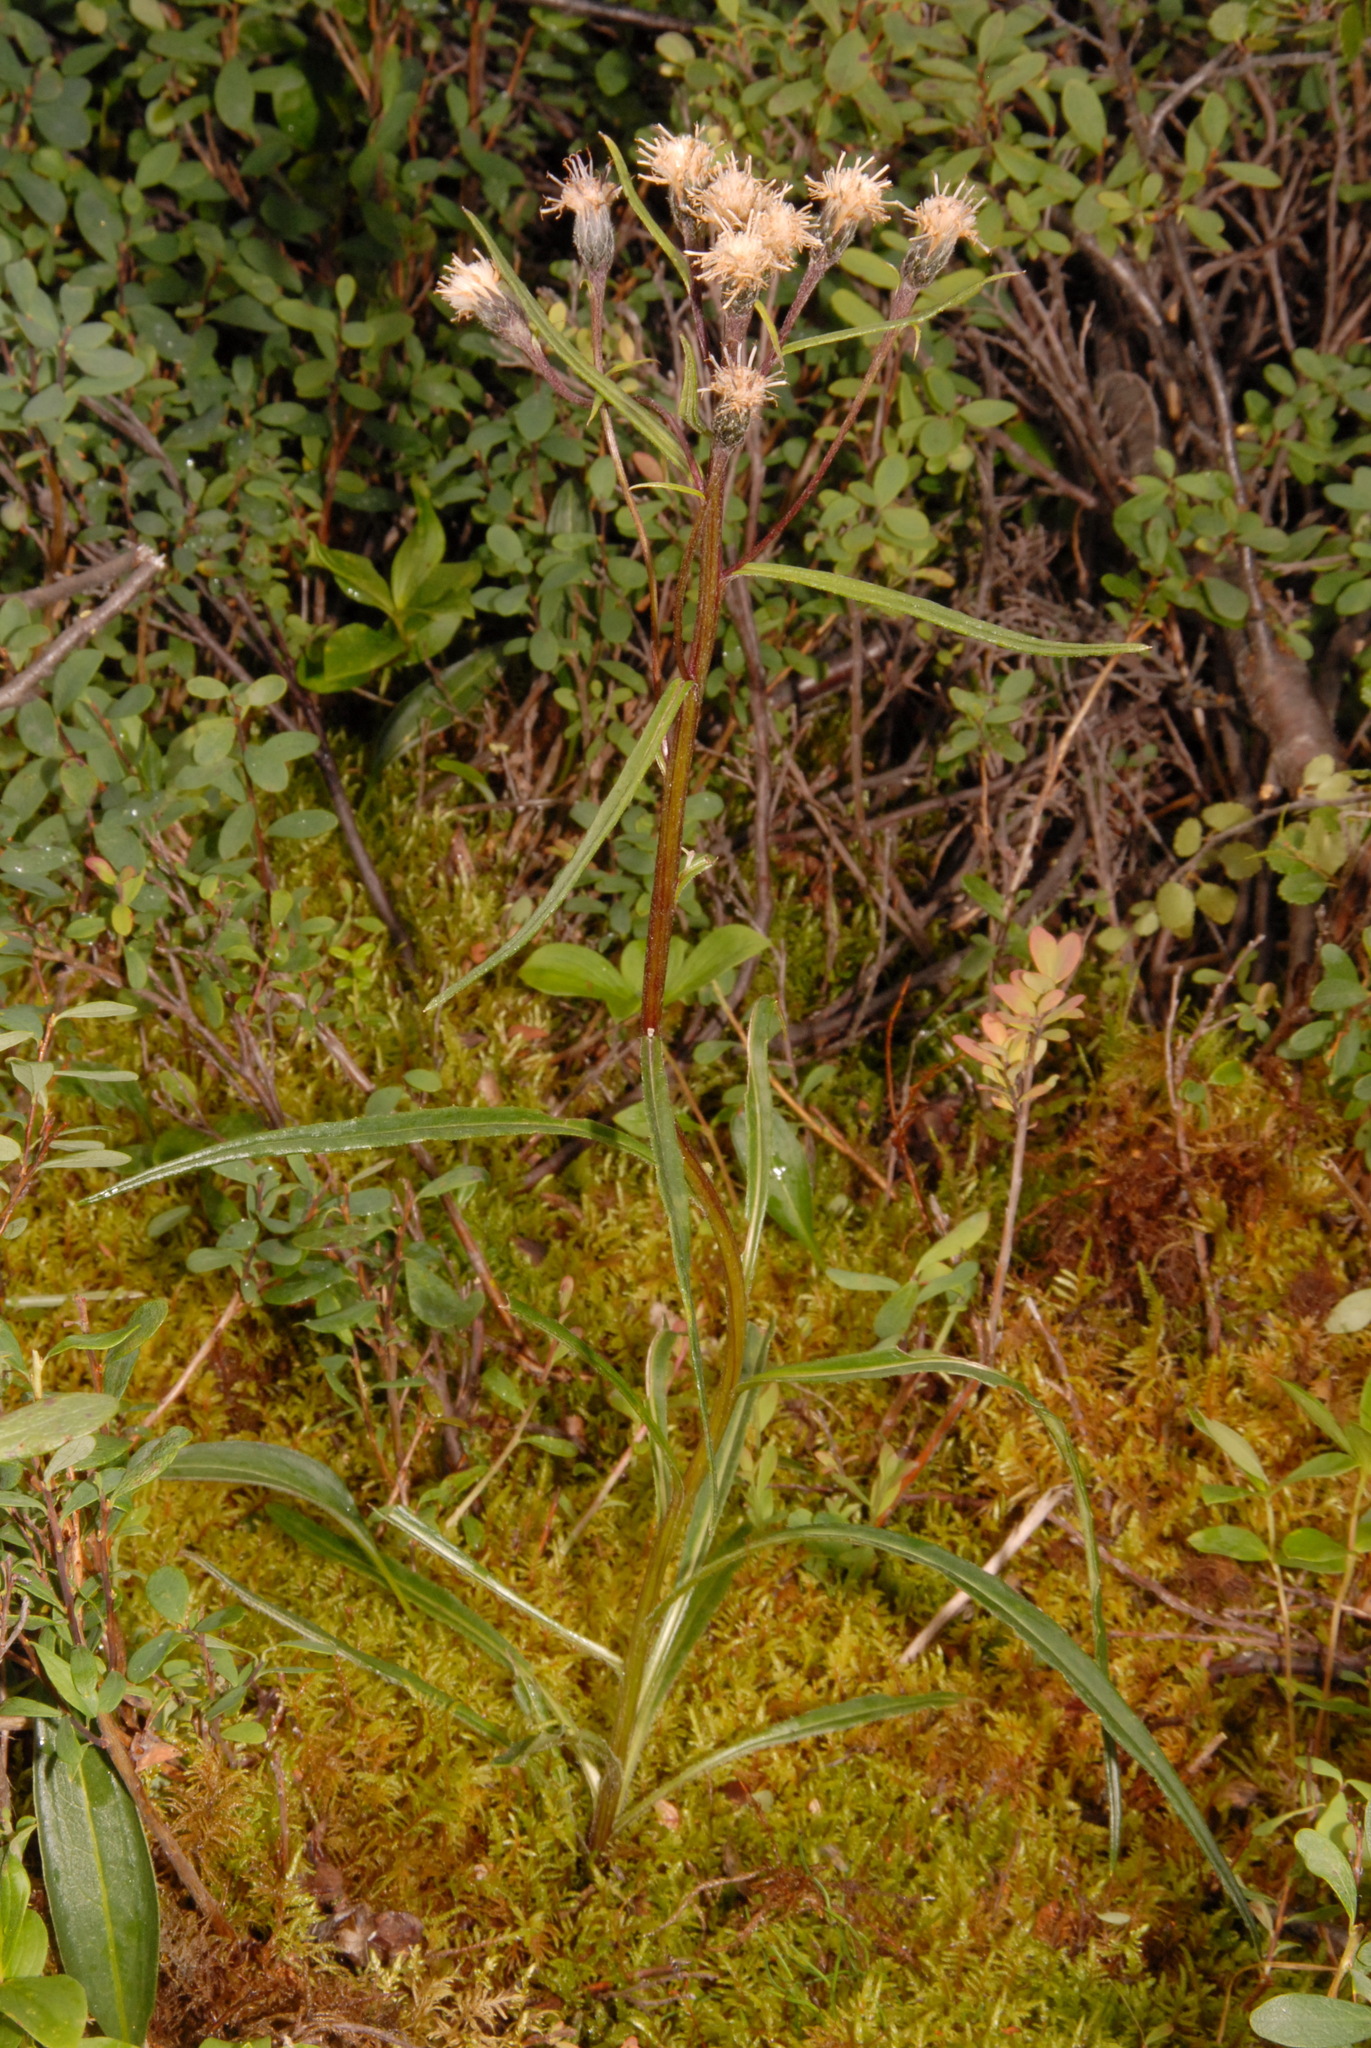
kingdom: Plantae
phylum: Tracheophyta
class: Magnoliopsida
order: Asterales
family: Asteraceae
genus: Saussurea
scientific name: Saussurea angustifolia
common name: Common saussurea
